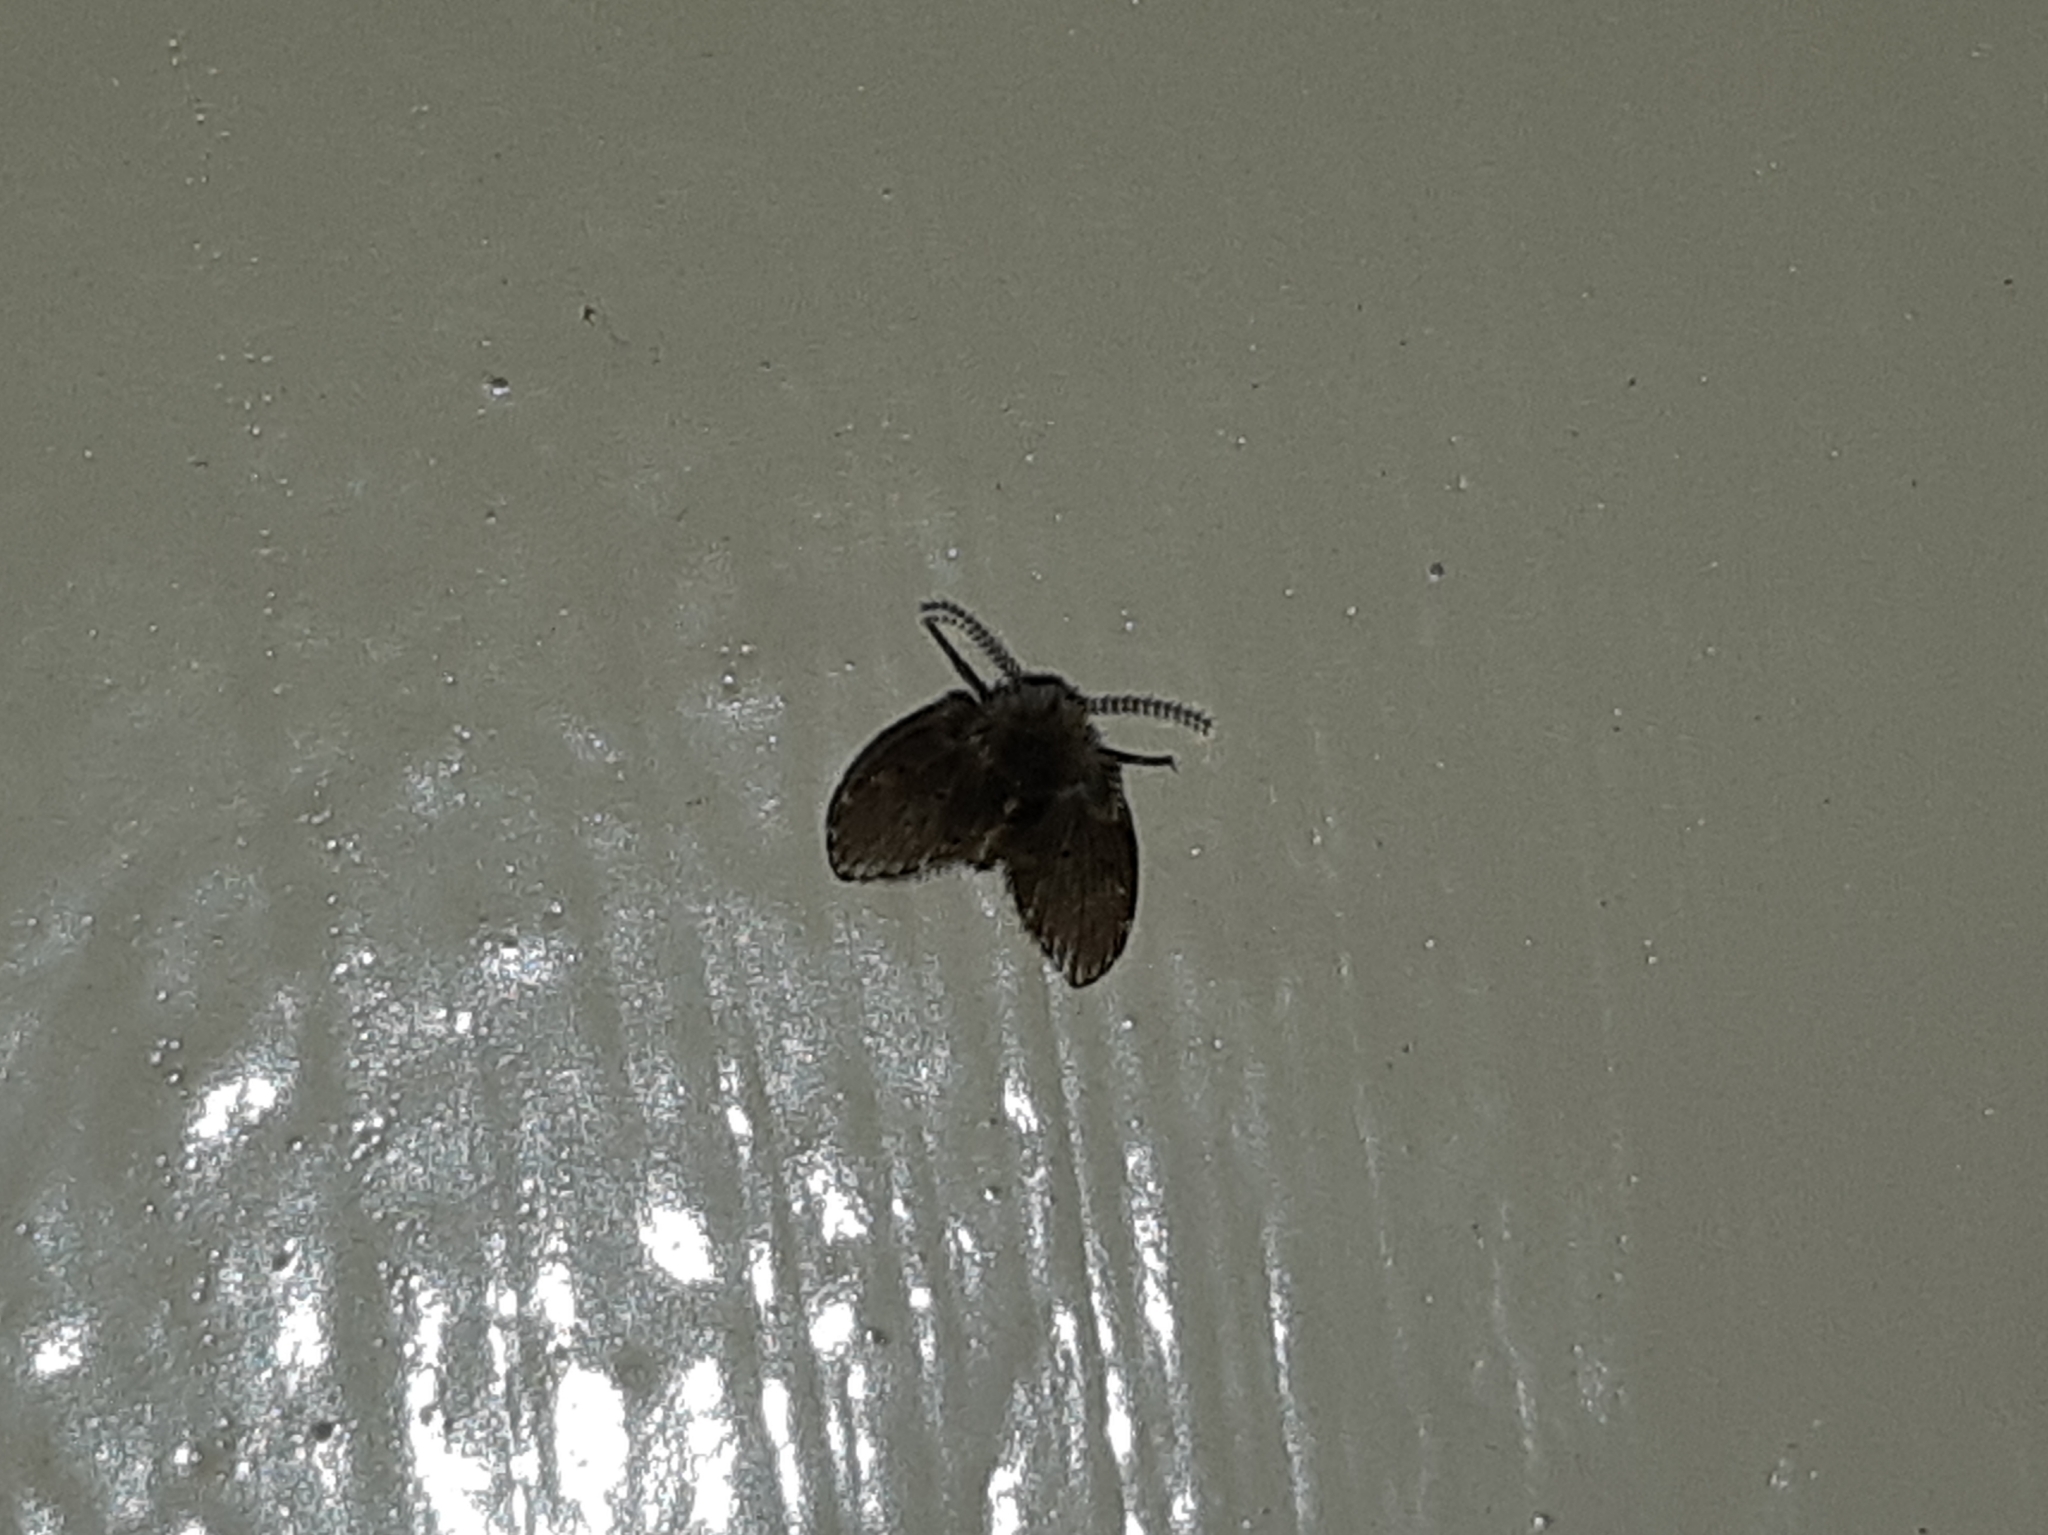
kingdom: Animalia
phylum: Arthropoda
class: Insecta
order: Diptera
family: Psychodidae
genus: Clogmia
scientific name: Clogmia albipunctatus
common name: White-spotted moth fly
